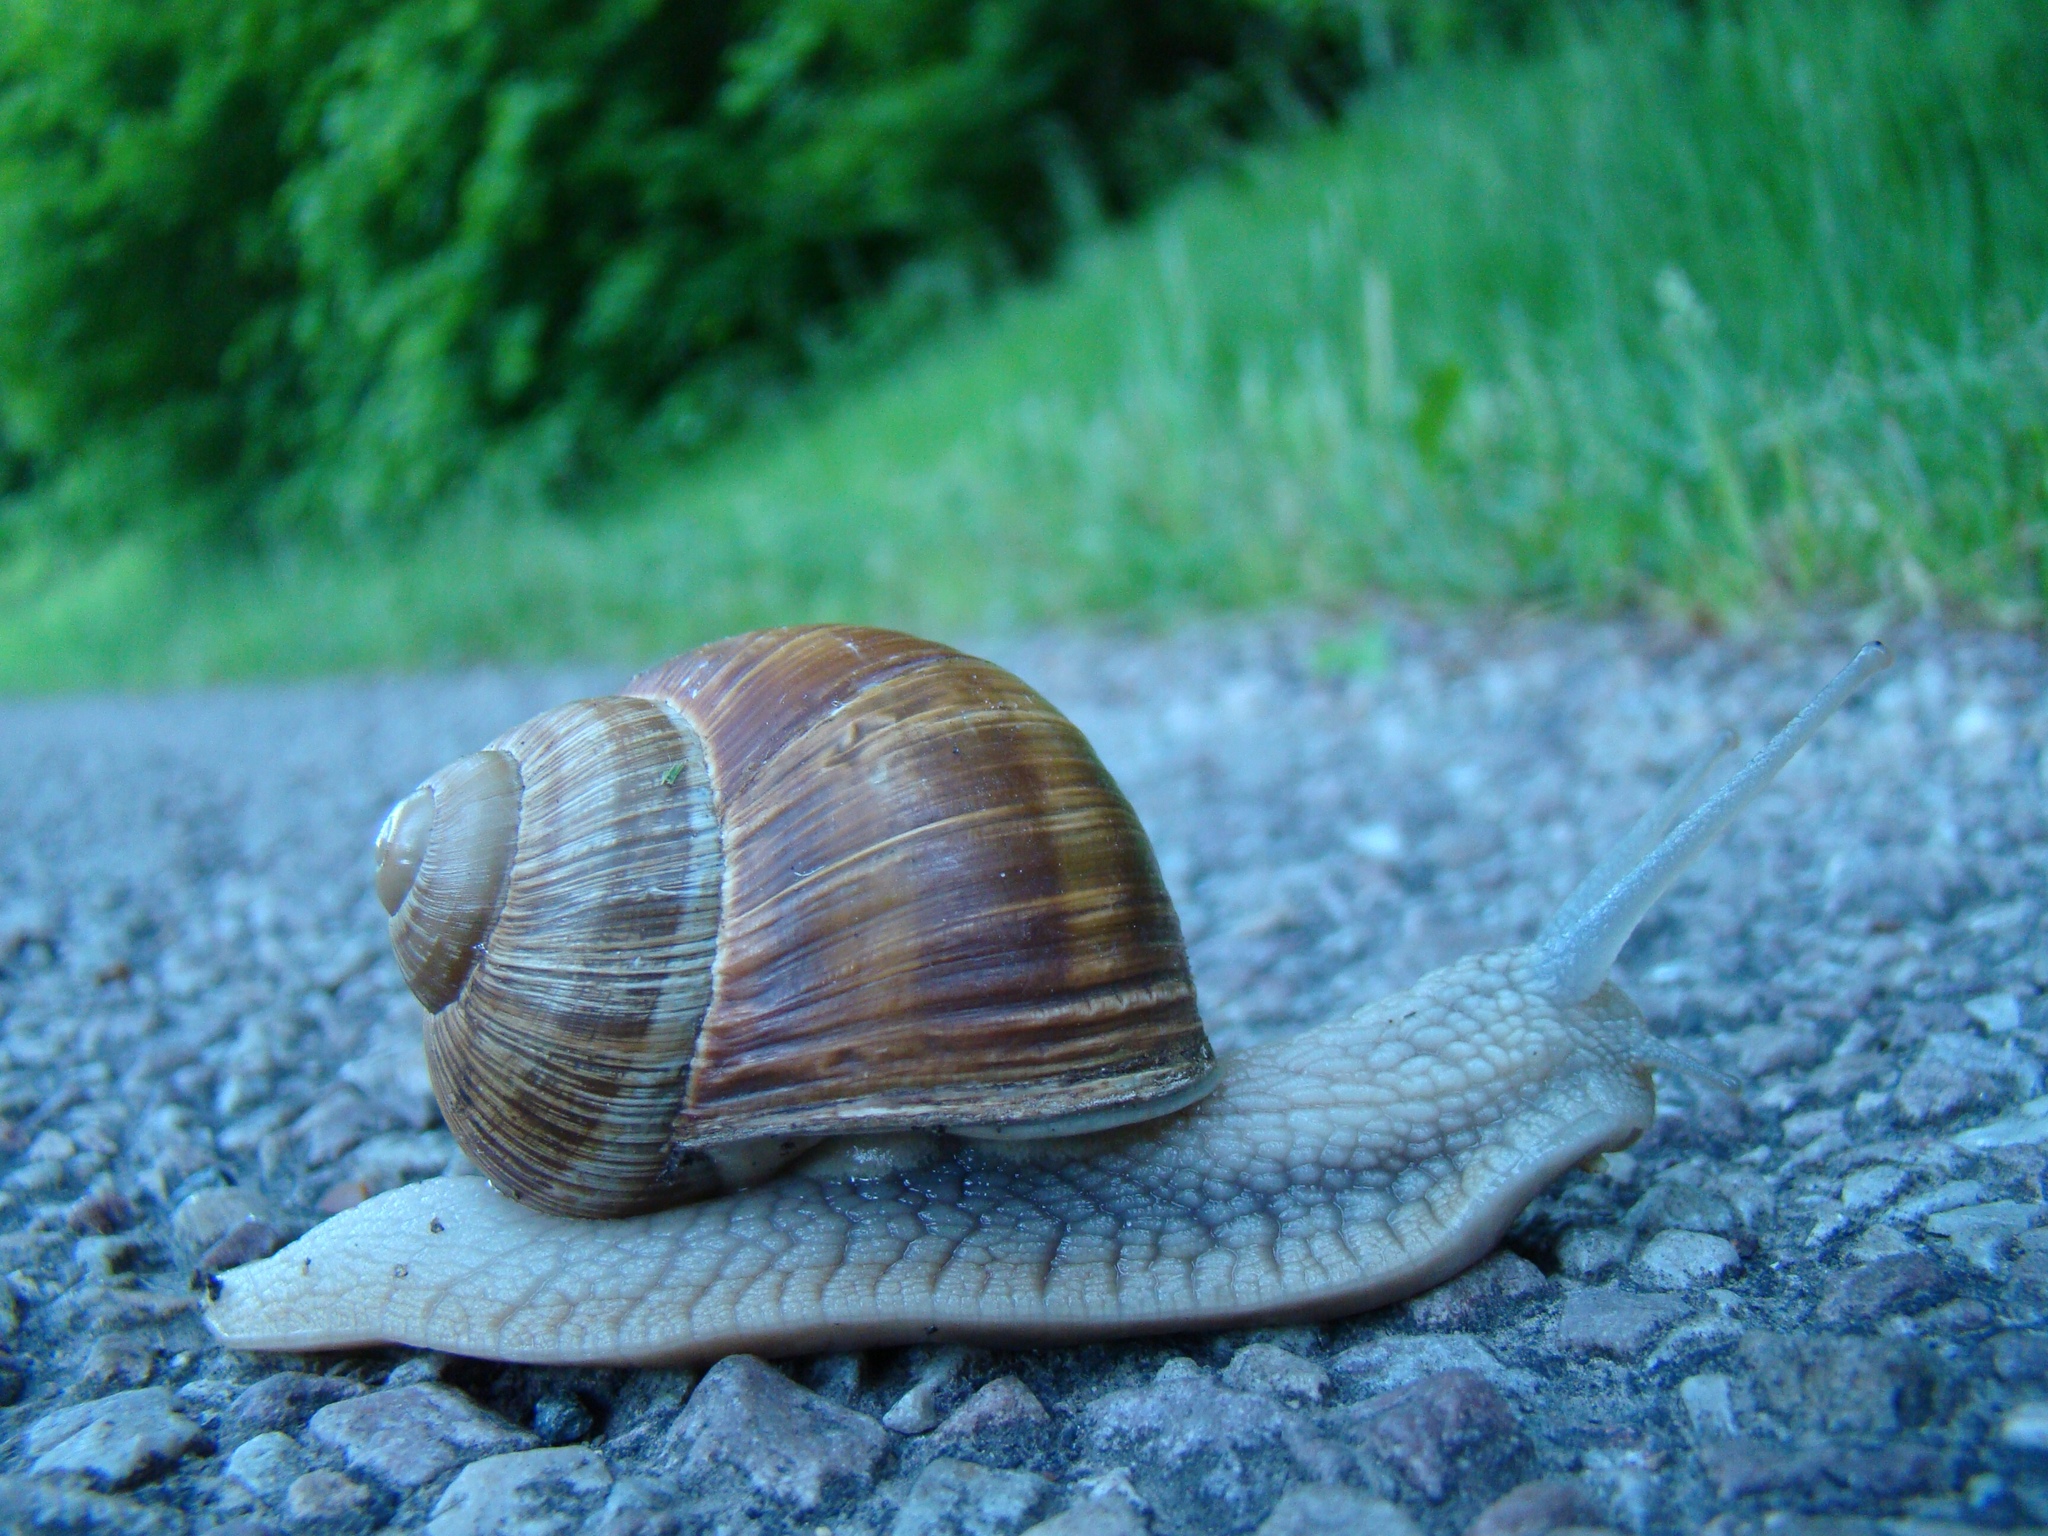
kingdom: Animalia
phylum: Mollusca
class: Gastropoda
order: Stylommatophora
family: Helicidae
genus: Helix
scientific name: Helix pomatia
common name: Roman snail
